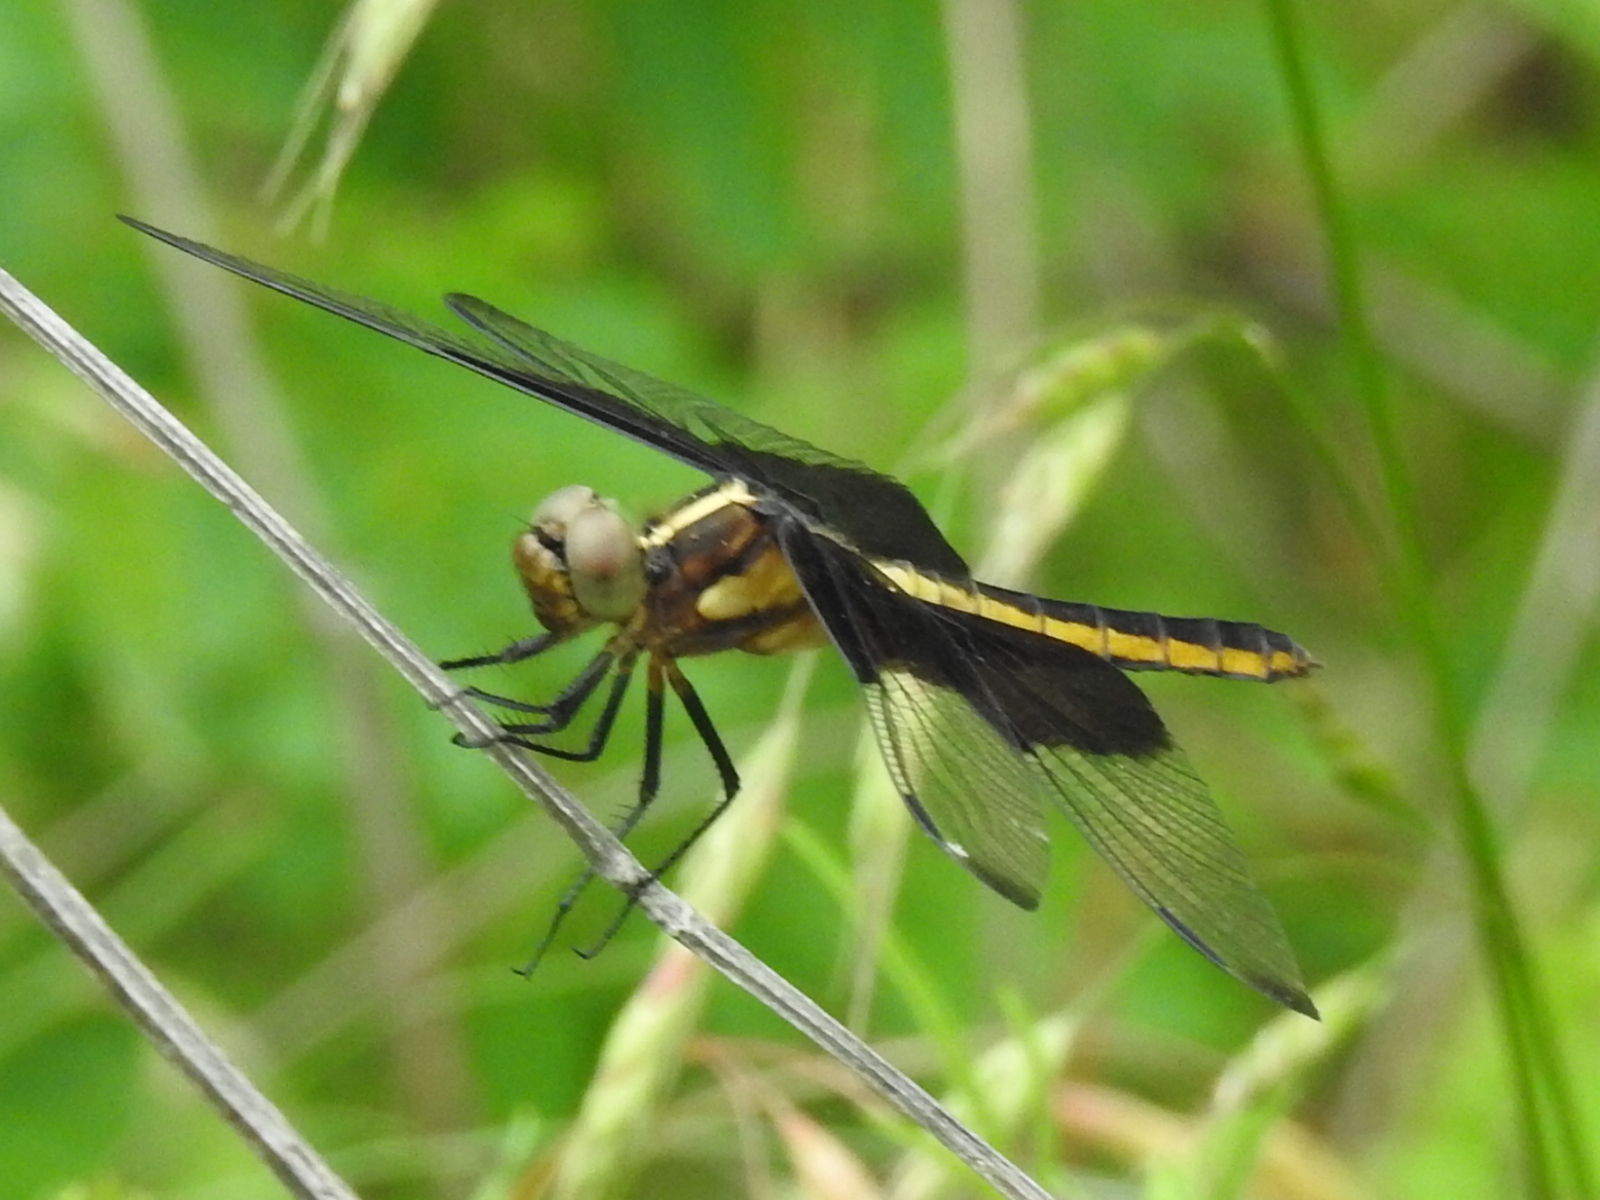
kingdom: Animalia
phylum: Arthropoda
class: Insecta
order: Odonata
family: Libellulidae
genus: Libellula
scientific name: Libellula luctuosa
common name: Widow skimmer
